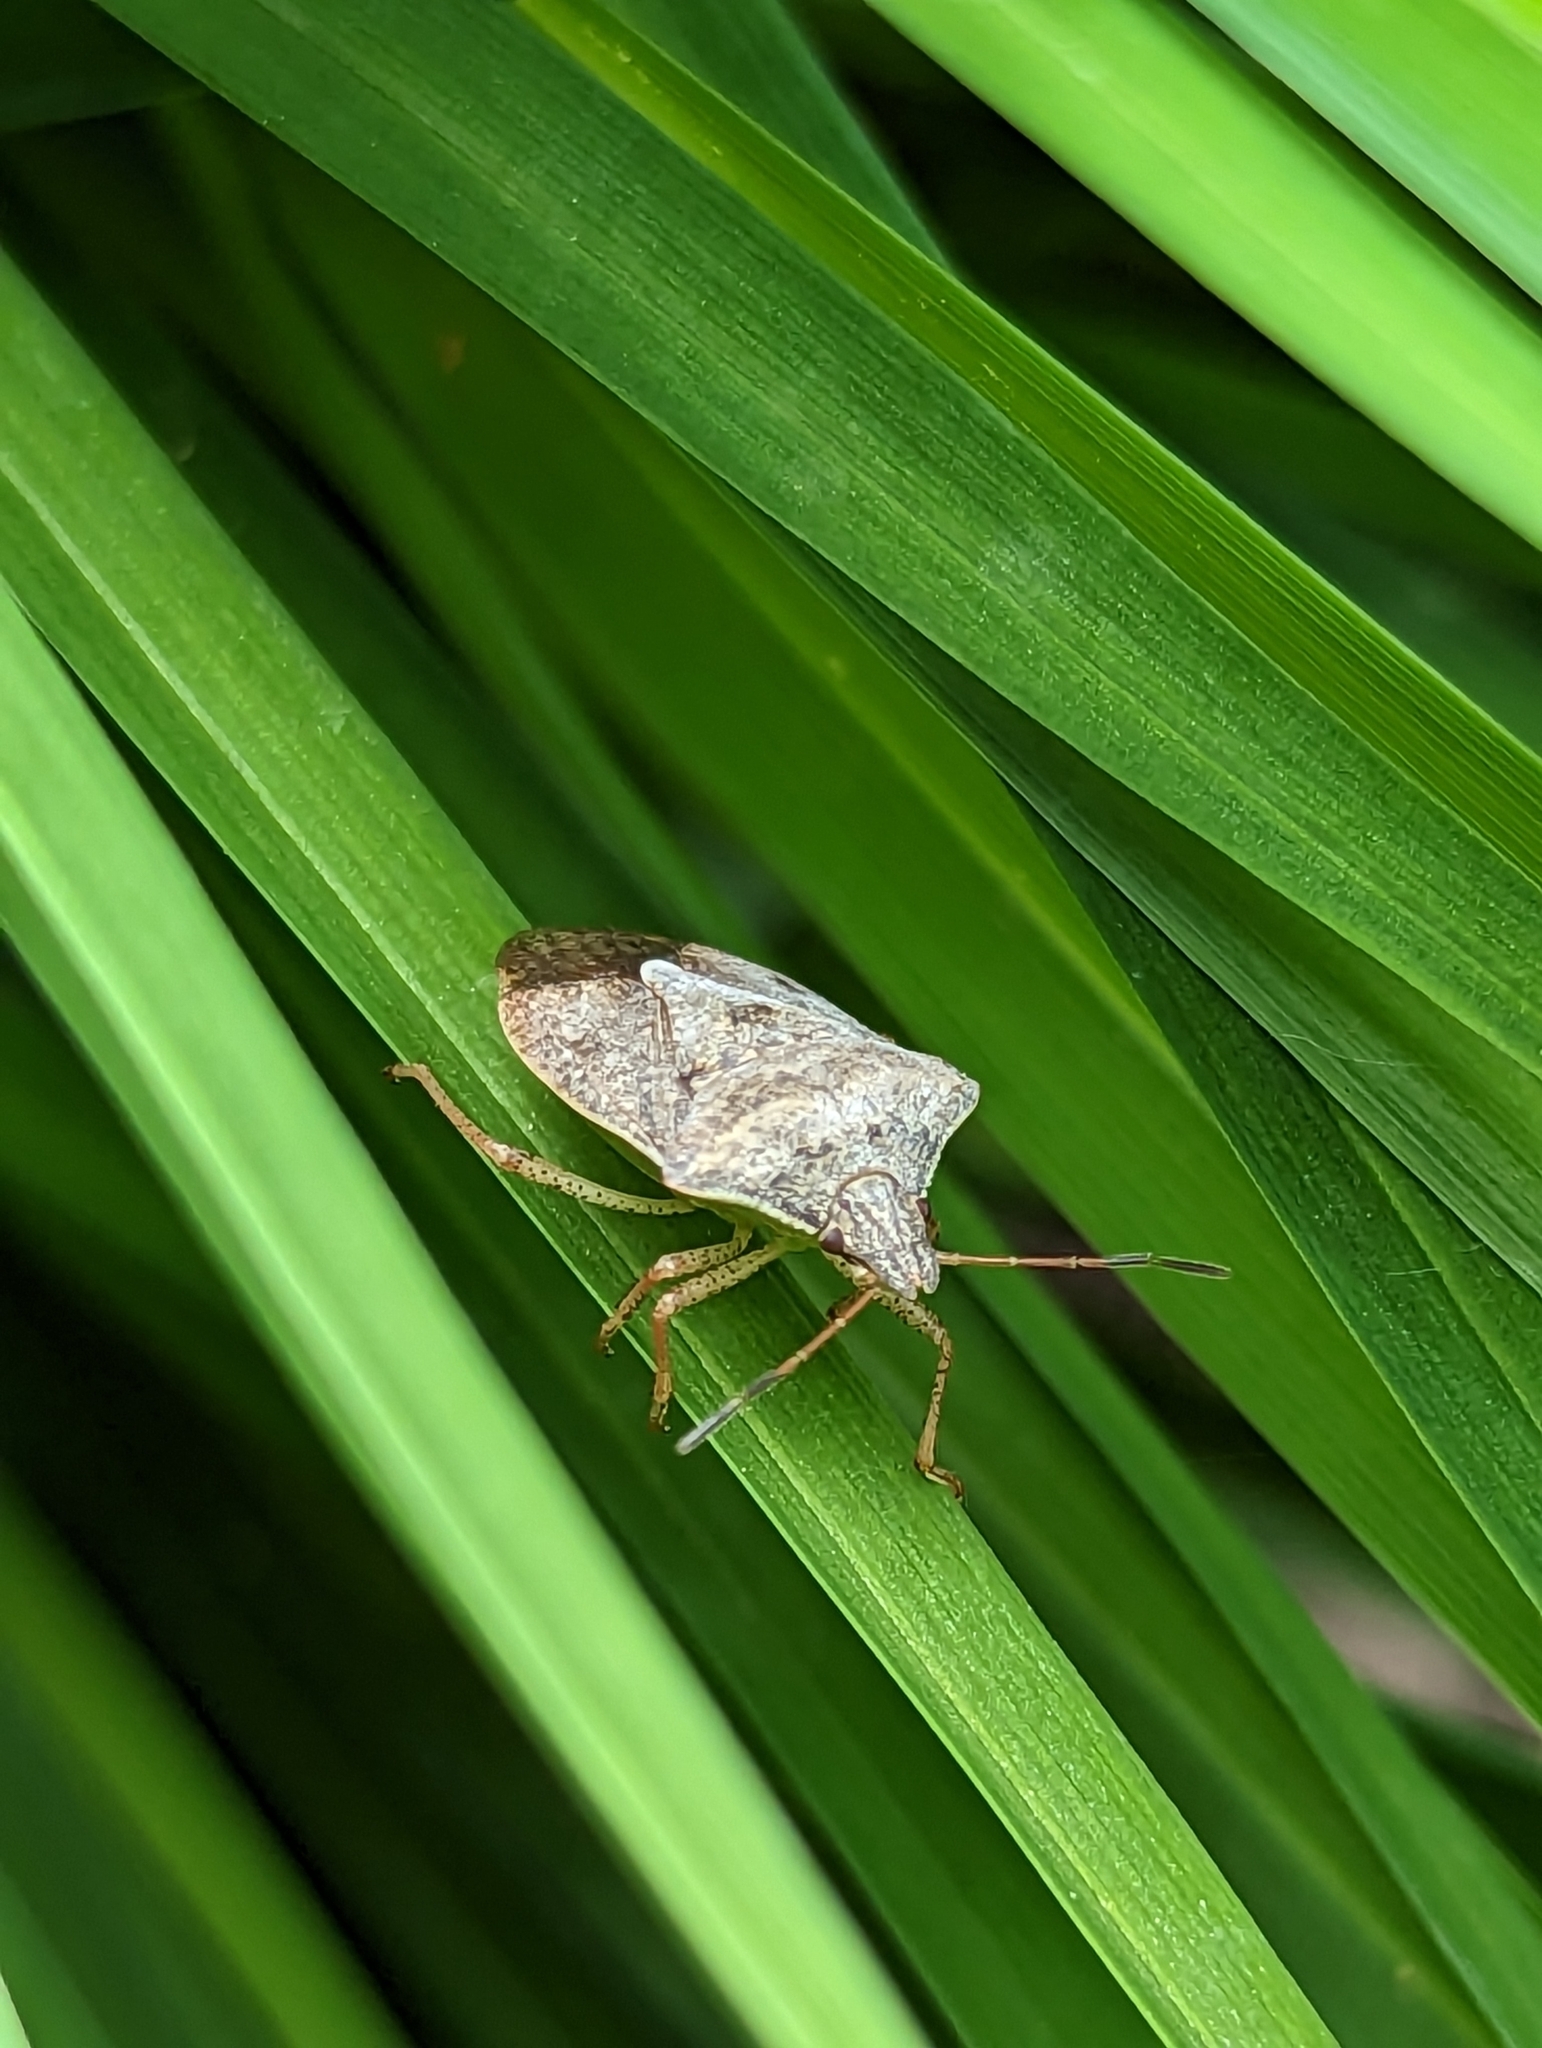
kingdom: Animalia
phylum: Arthropoda
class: Insecta
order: Hemiptera
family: Pentatomidae
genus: Euschistus
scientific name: Euschistus servus
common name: Brown stink bug
